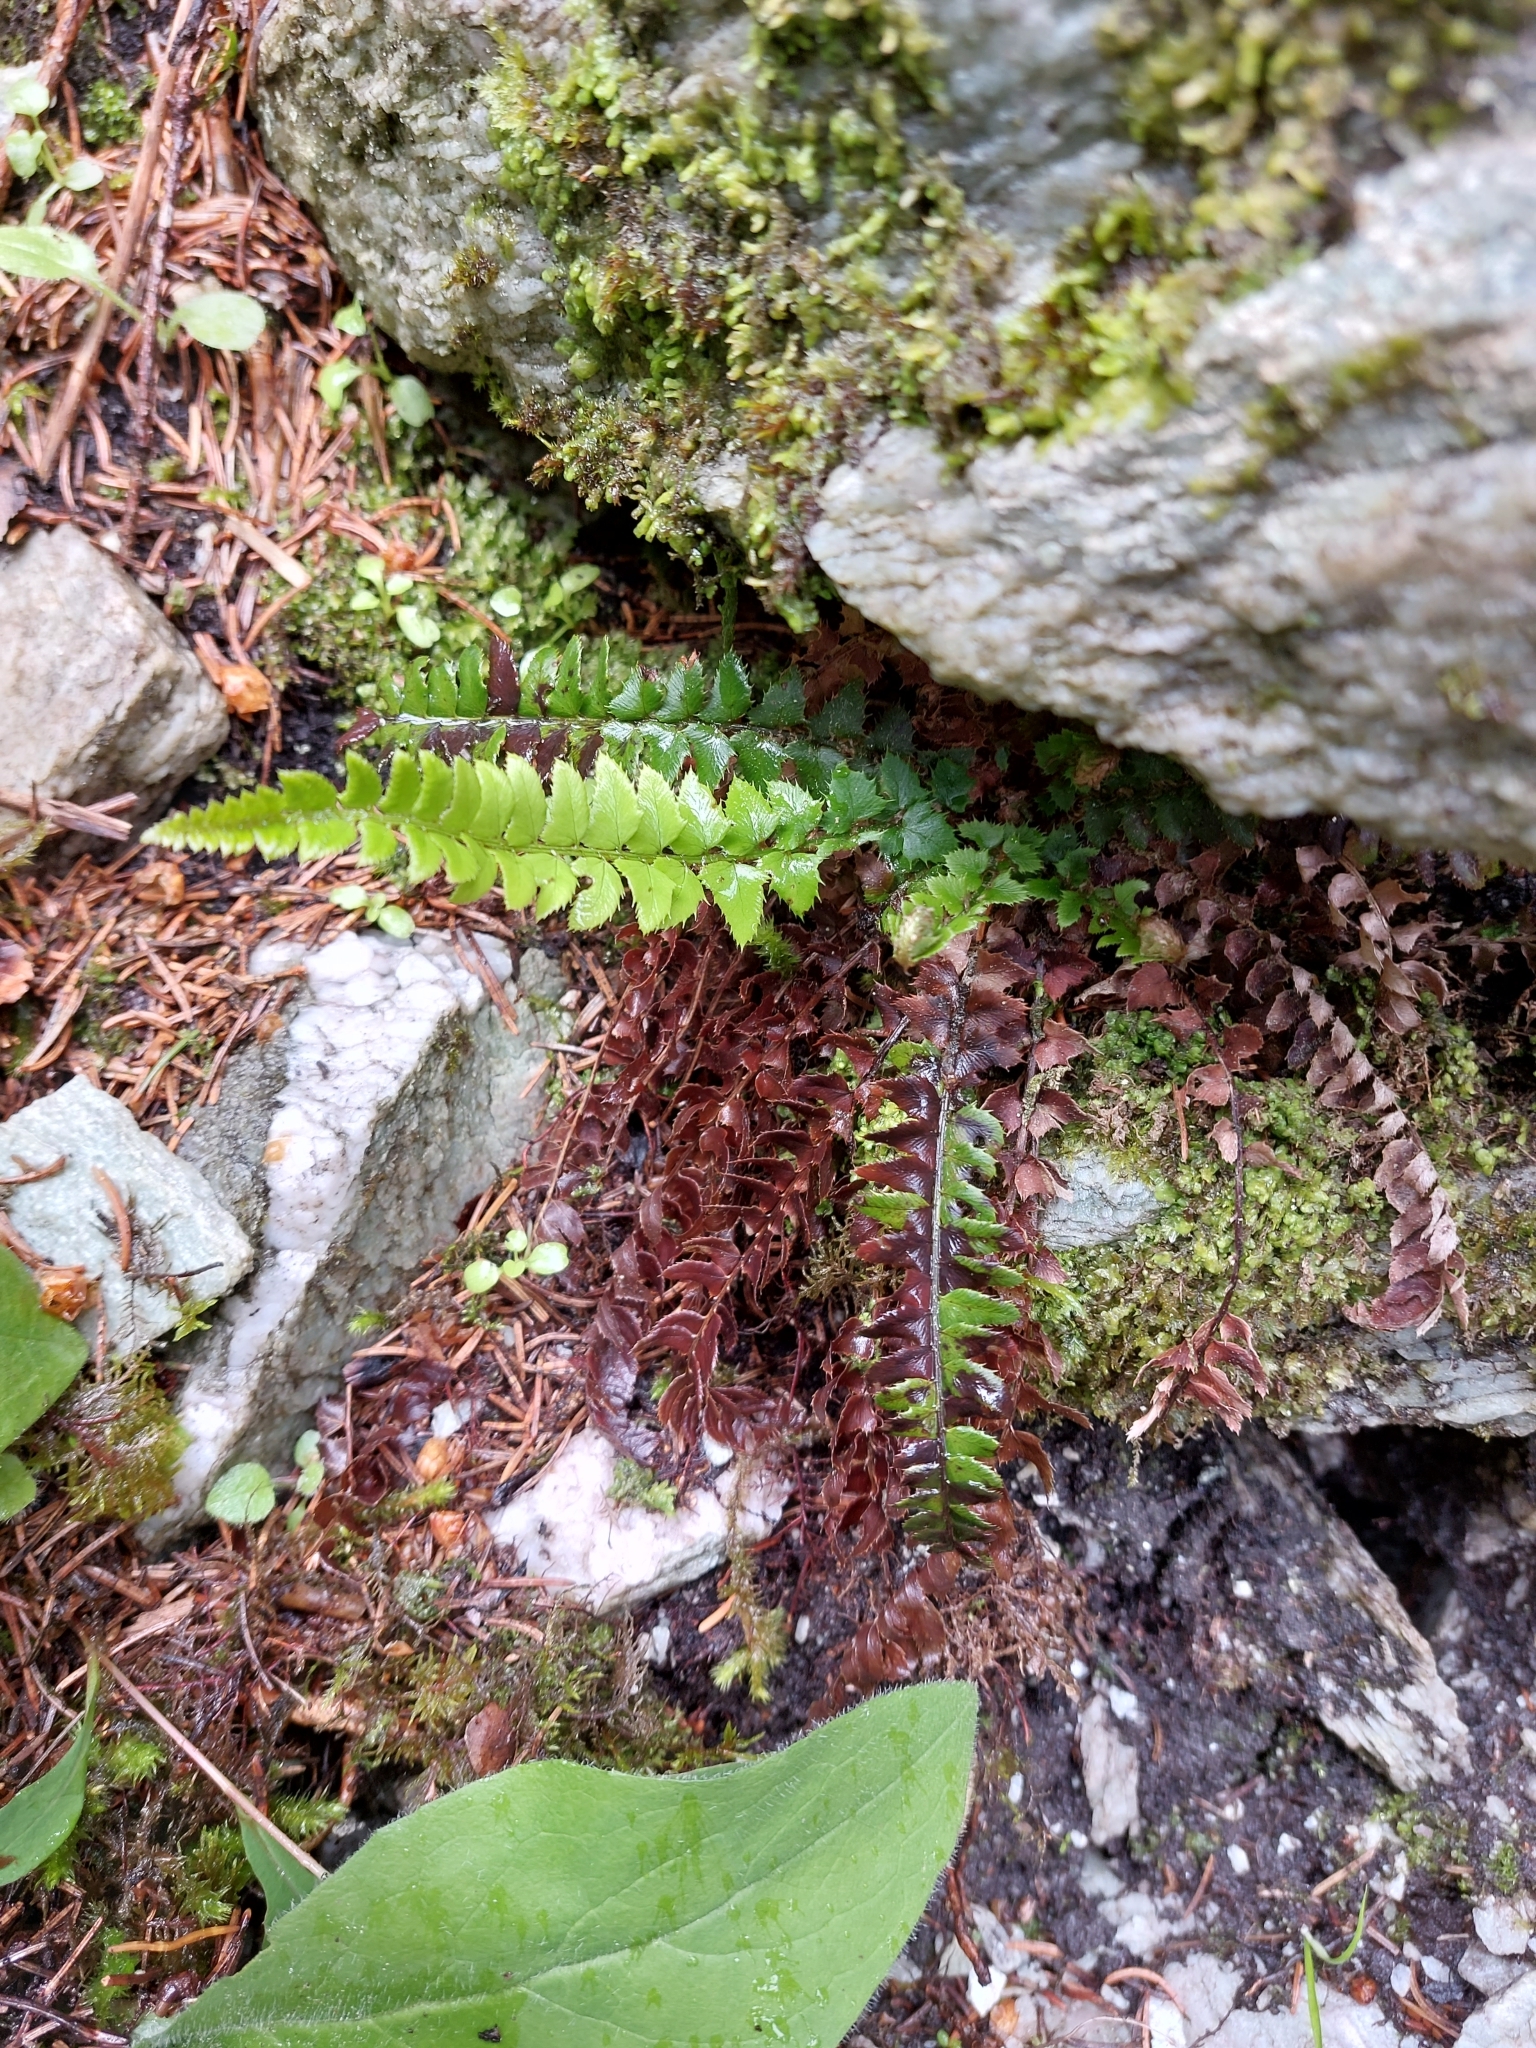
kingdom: Plantae
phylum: Tracheophyta
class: Polypodiopsida
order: Polypodiales
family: Dryopteridaceae
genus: Polystichum
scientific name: Polystichum lonchitis
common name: Holly fern
